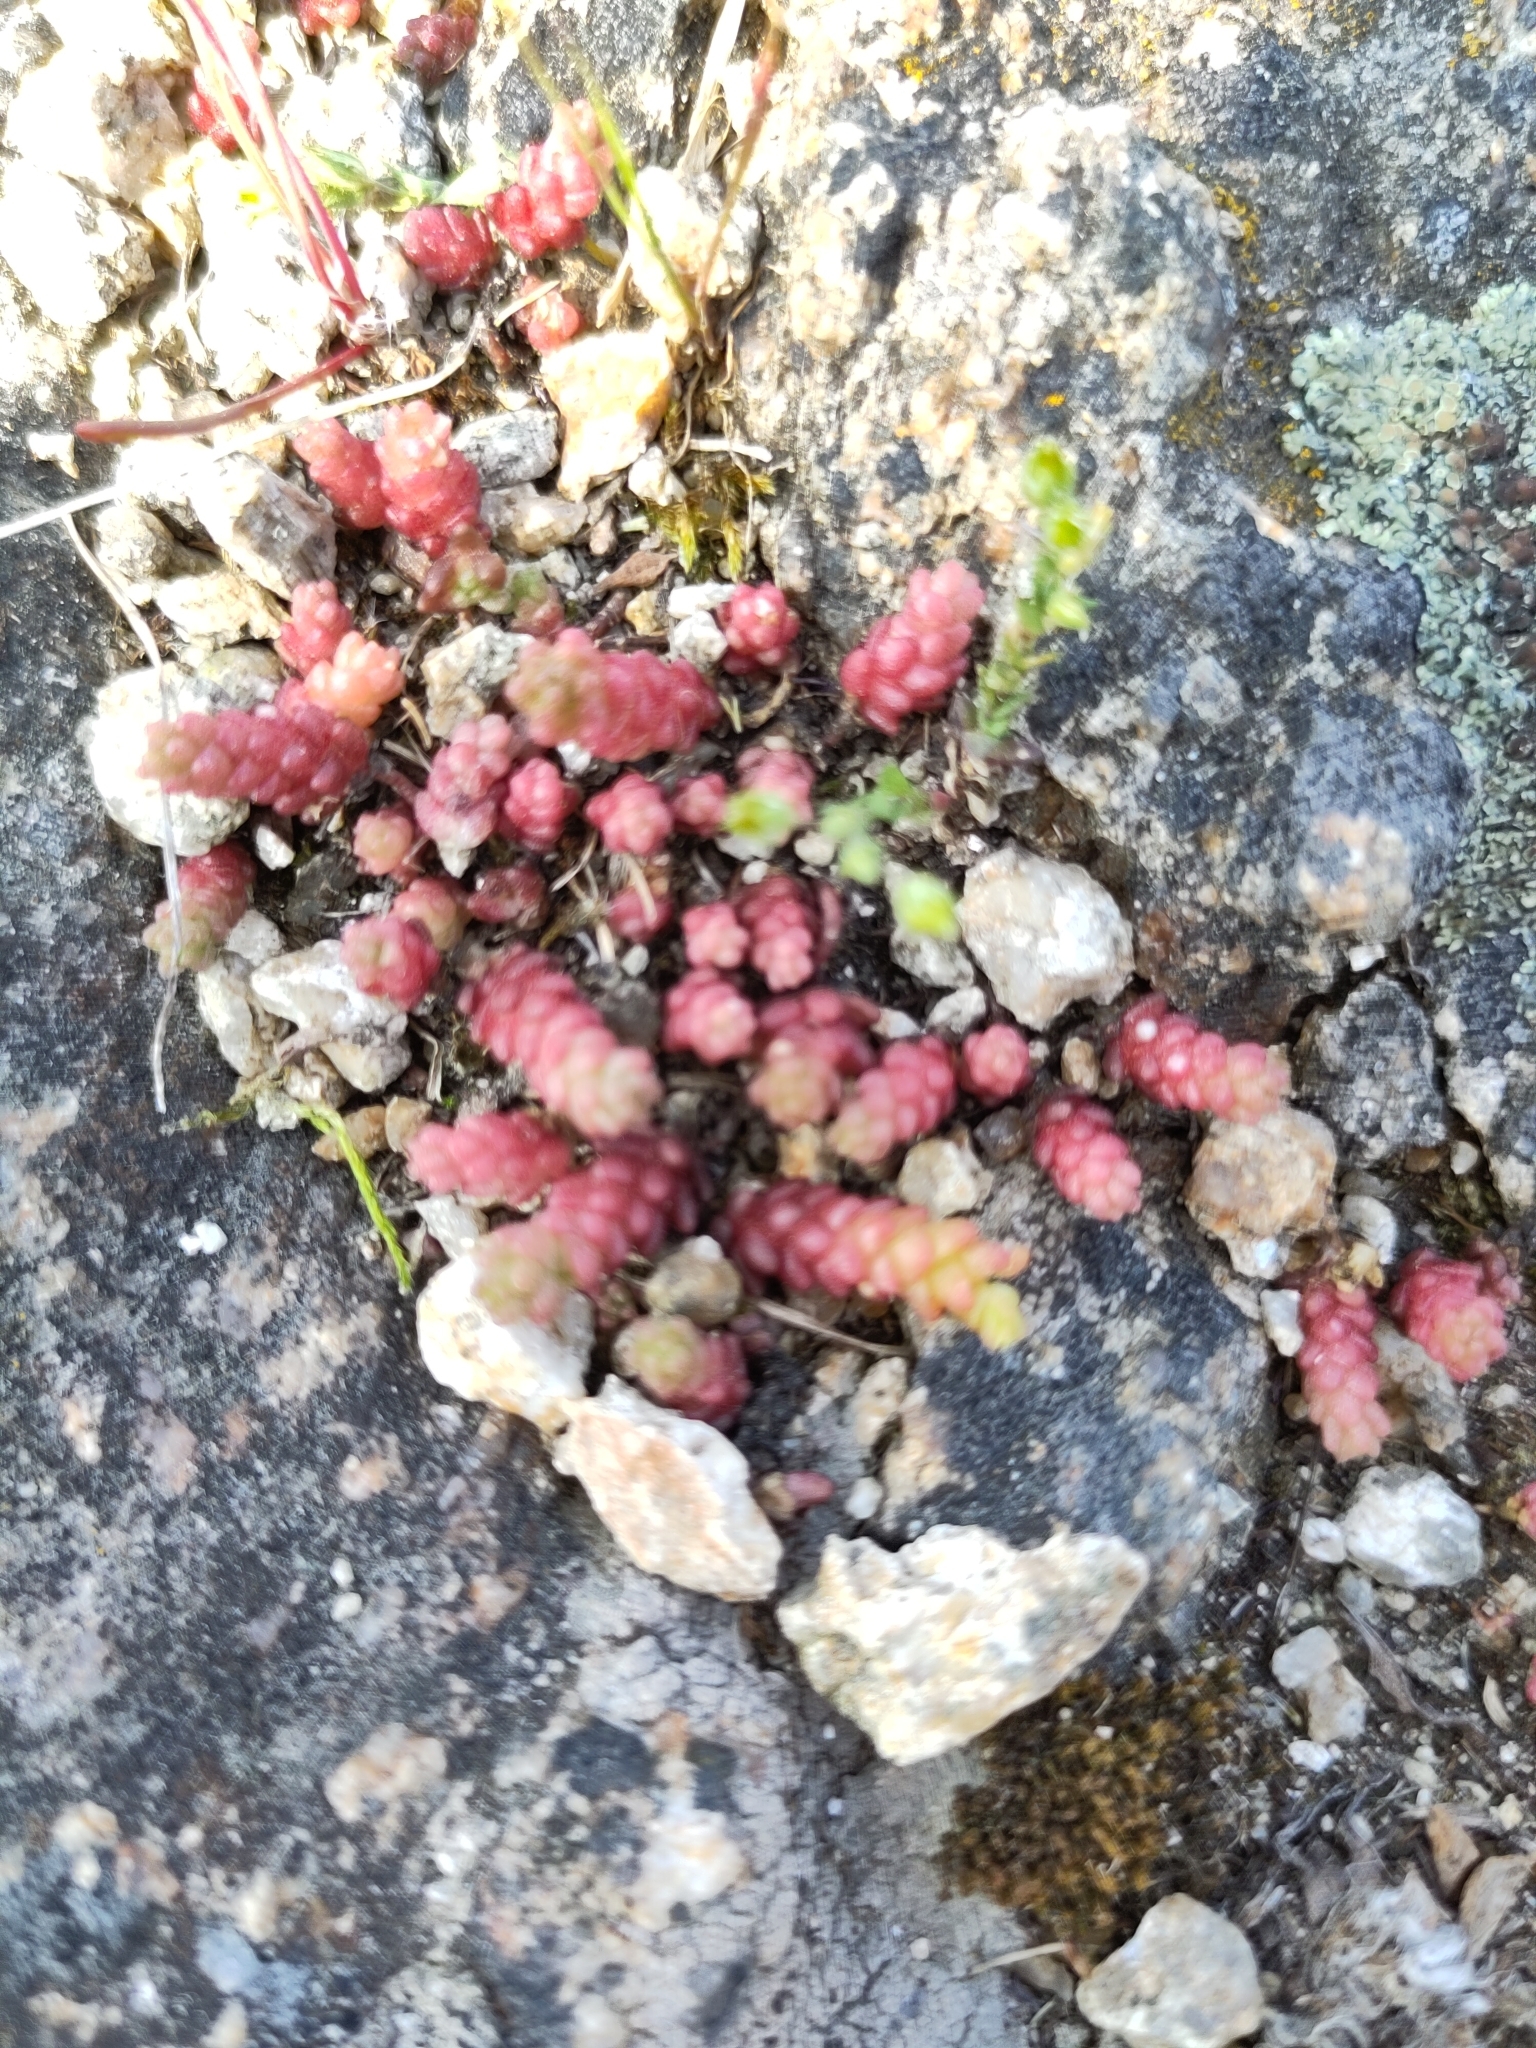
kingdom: Plantae
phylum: Tracheophyta
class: Magnoliopsida
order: Saxifragales
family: Crassulaceae
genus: Sedum
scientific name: Sedum acre
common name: Biting stonecrop
